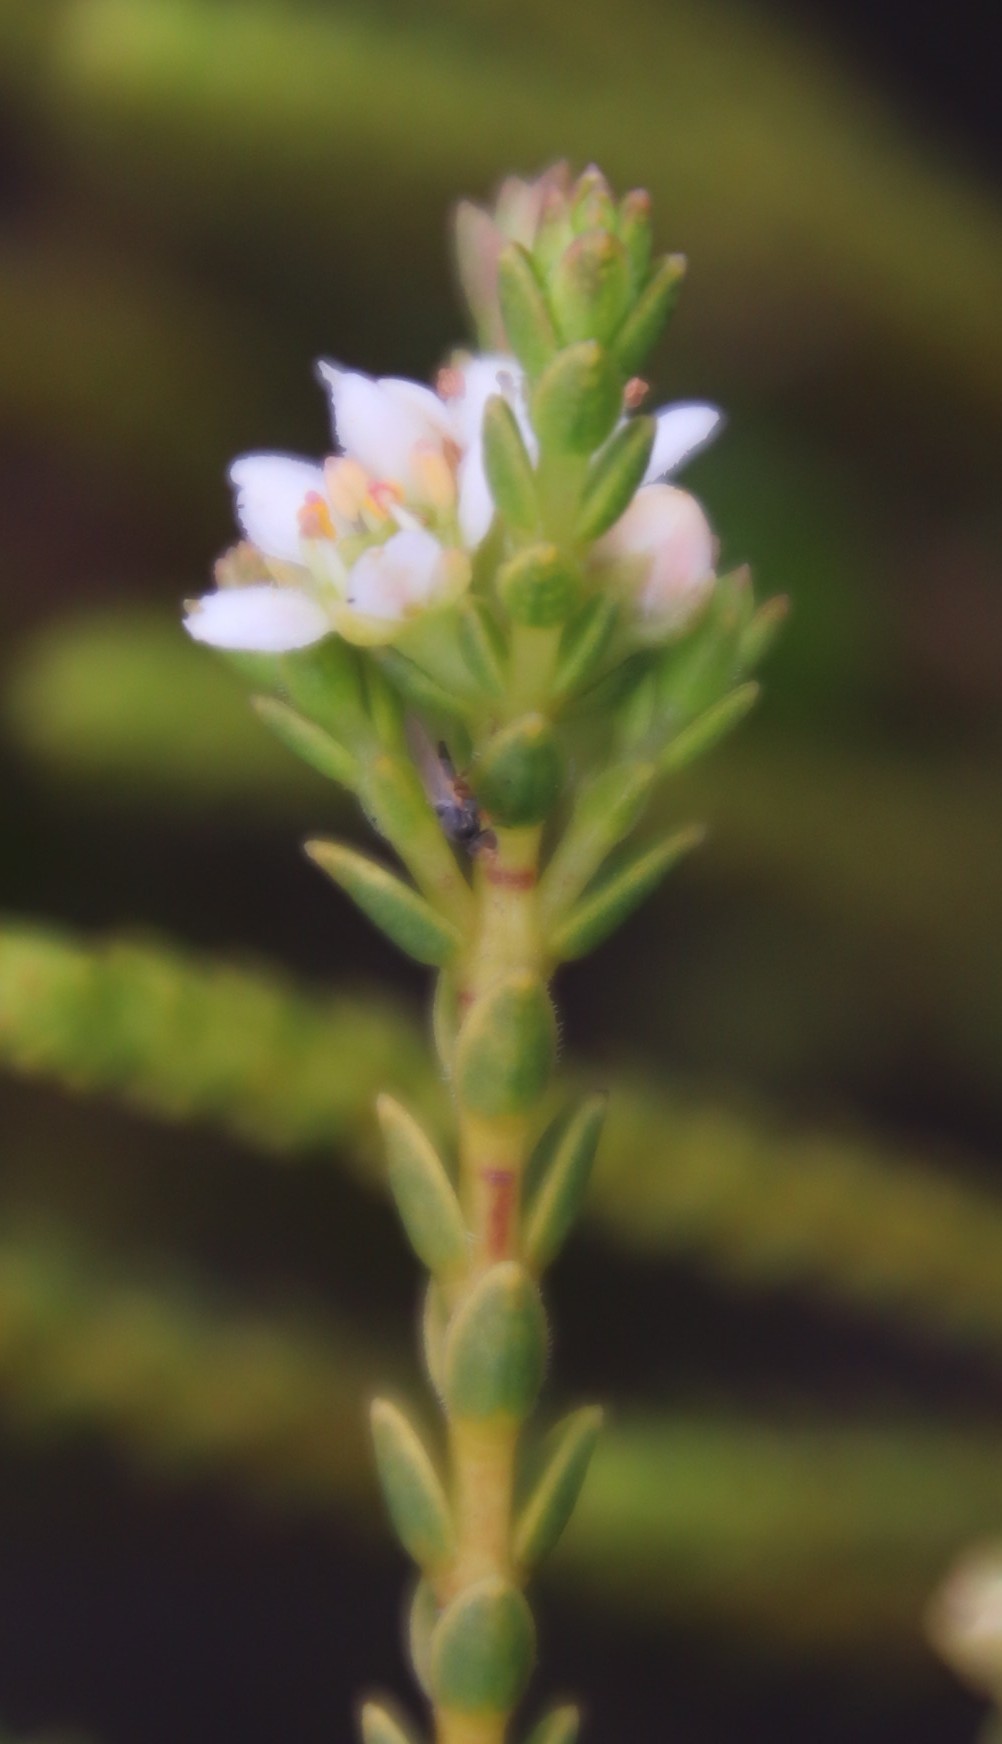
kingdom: Plantae
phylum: Tracheophyta
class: Magnoliopsida
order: Sapindales
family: Rutaceae
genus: Diosma
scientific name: Diosma oppositifolia
